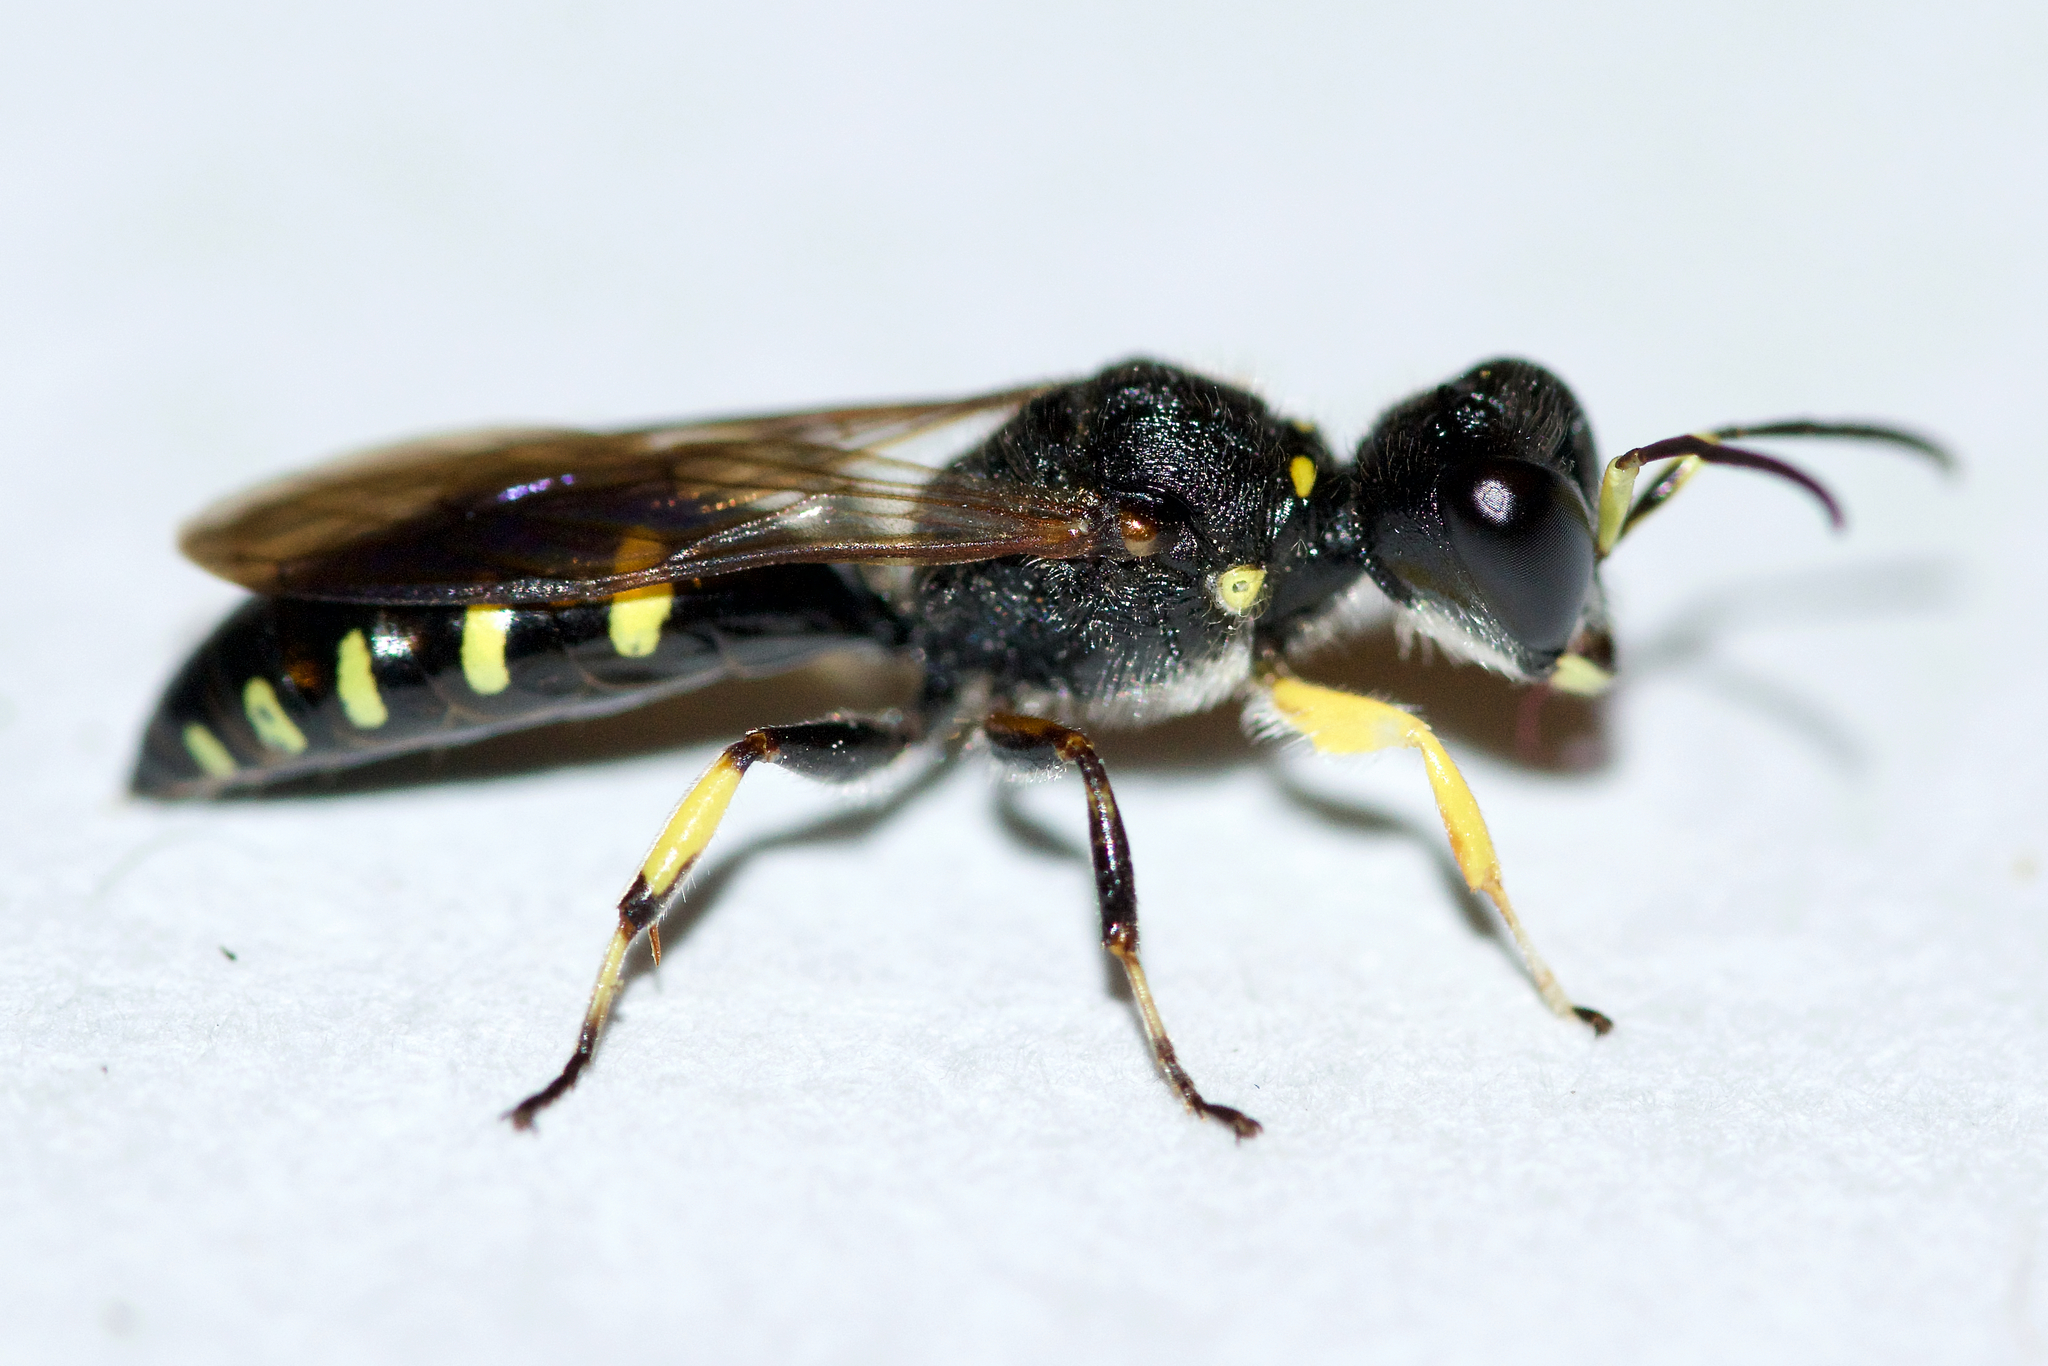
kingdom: Animalia
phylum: Arthropoda
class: Insecta
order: Hymenoptera
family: Crabronidae
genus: Ectemnius
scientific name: Ectemnius maculosus
